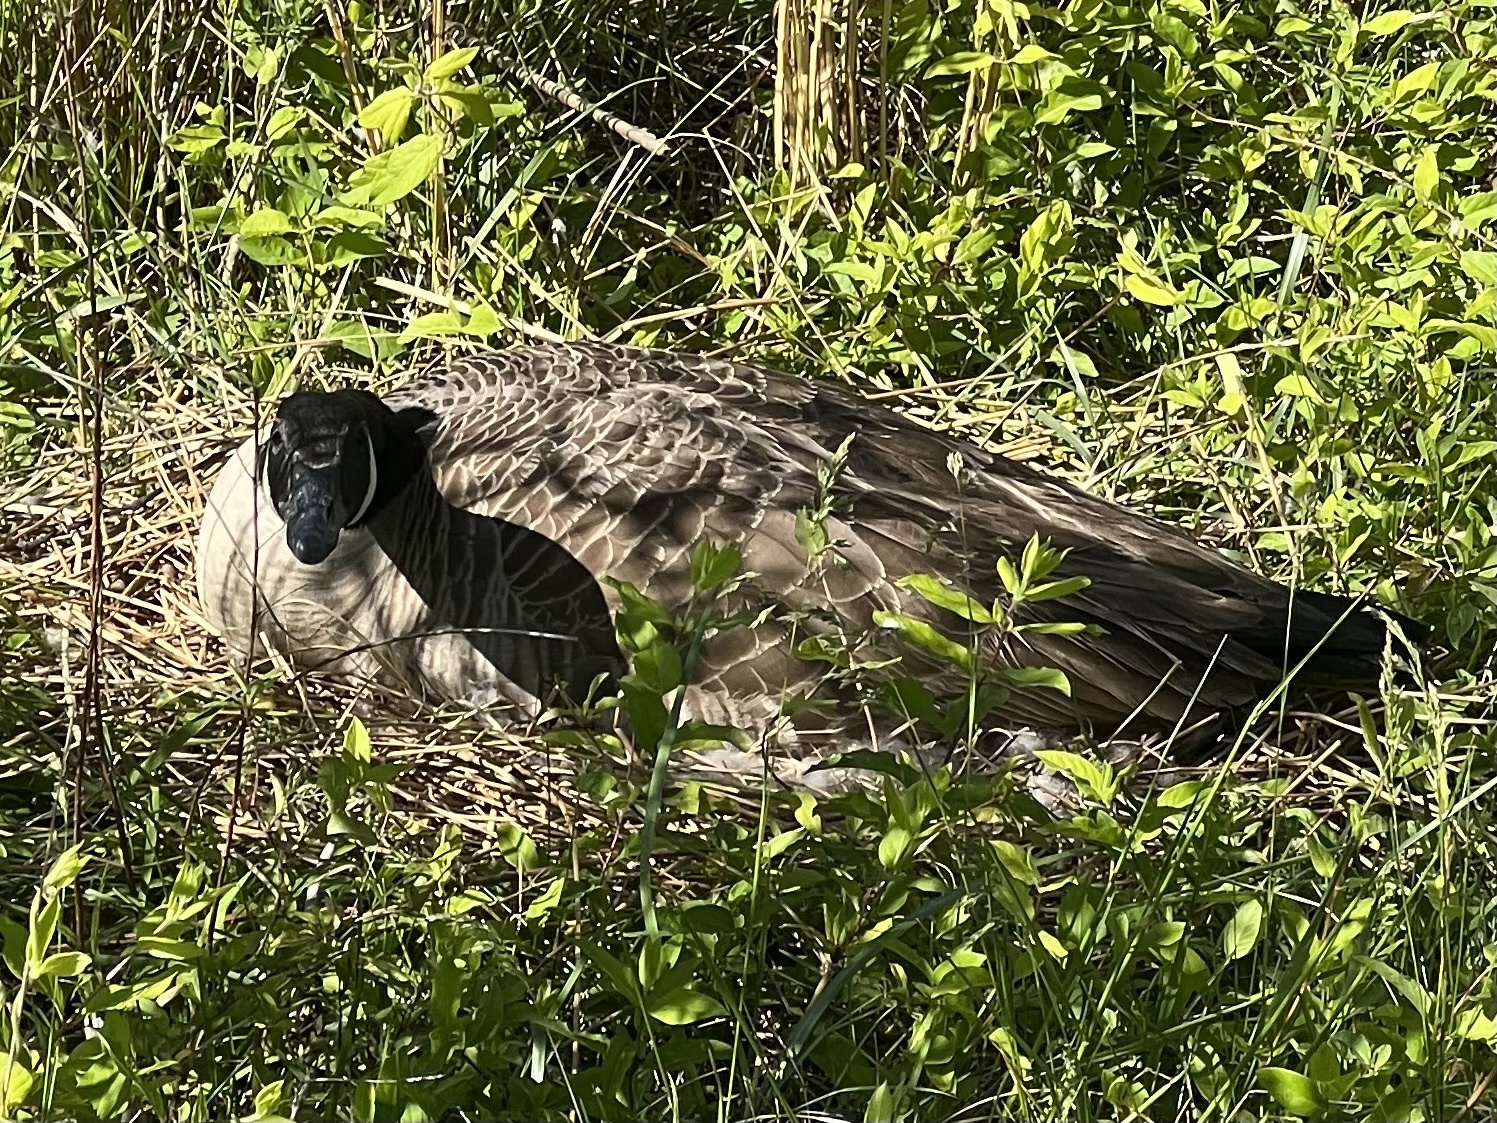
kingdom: Animalia
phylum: Chordata
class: Aves
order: Anseriformes
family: Anatidae
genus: Branta
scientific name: Branta canadensis
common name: Canada goose
